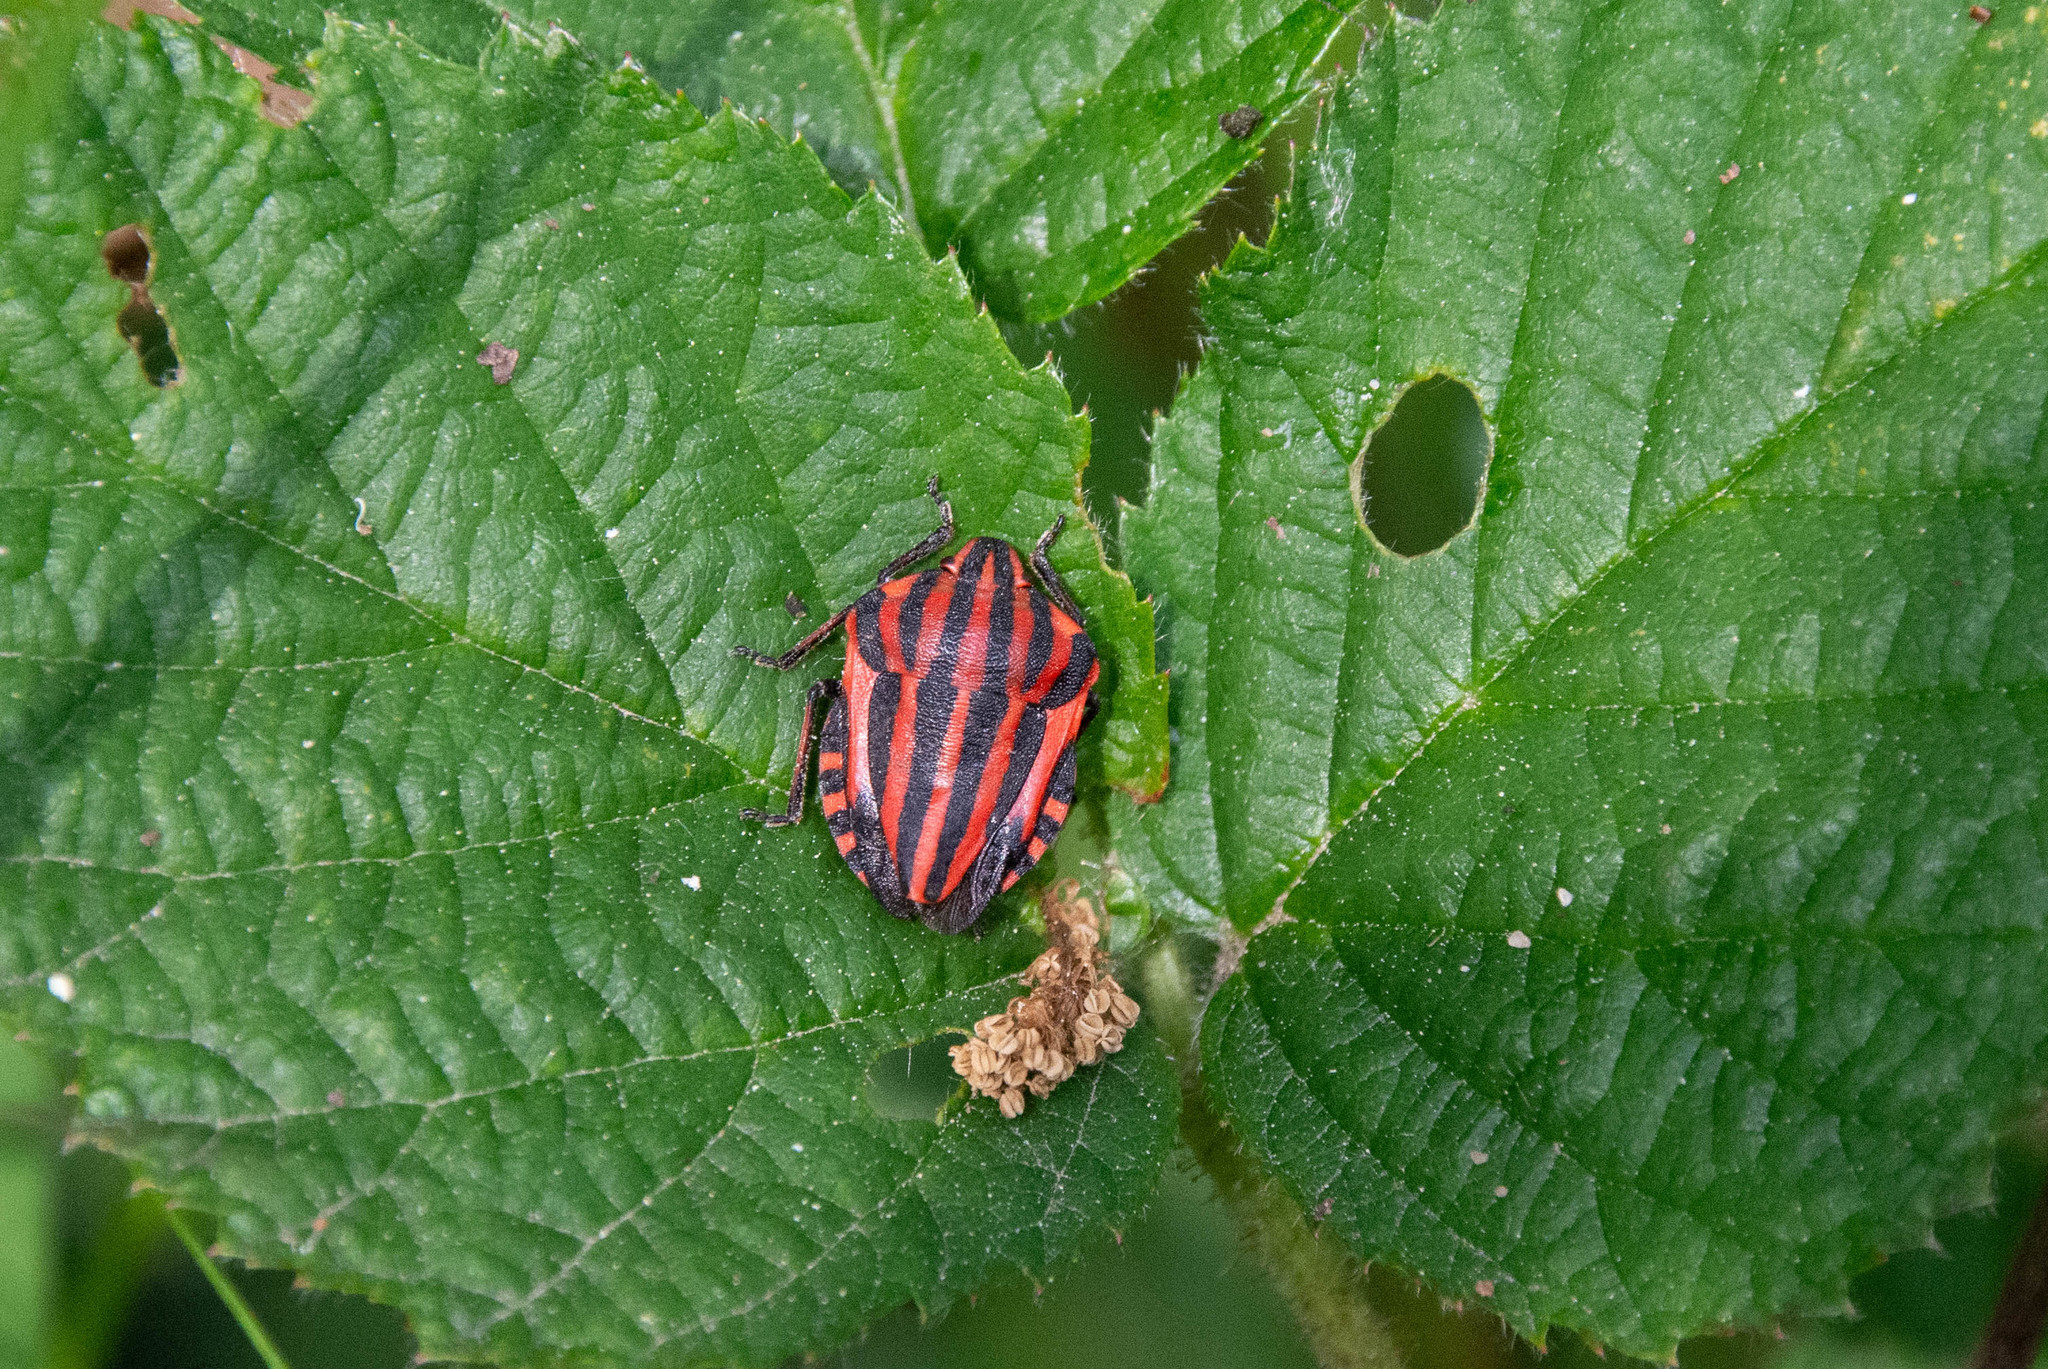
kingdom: Animalia
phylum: Arthropoda
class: Insecta
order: Hemiptera
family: Pentatomidae
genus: Graphosoma
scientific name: Graphosoma italicum
